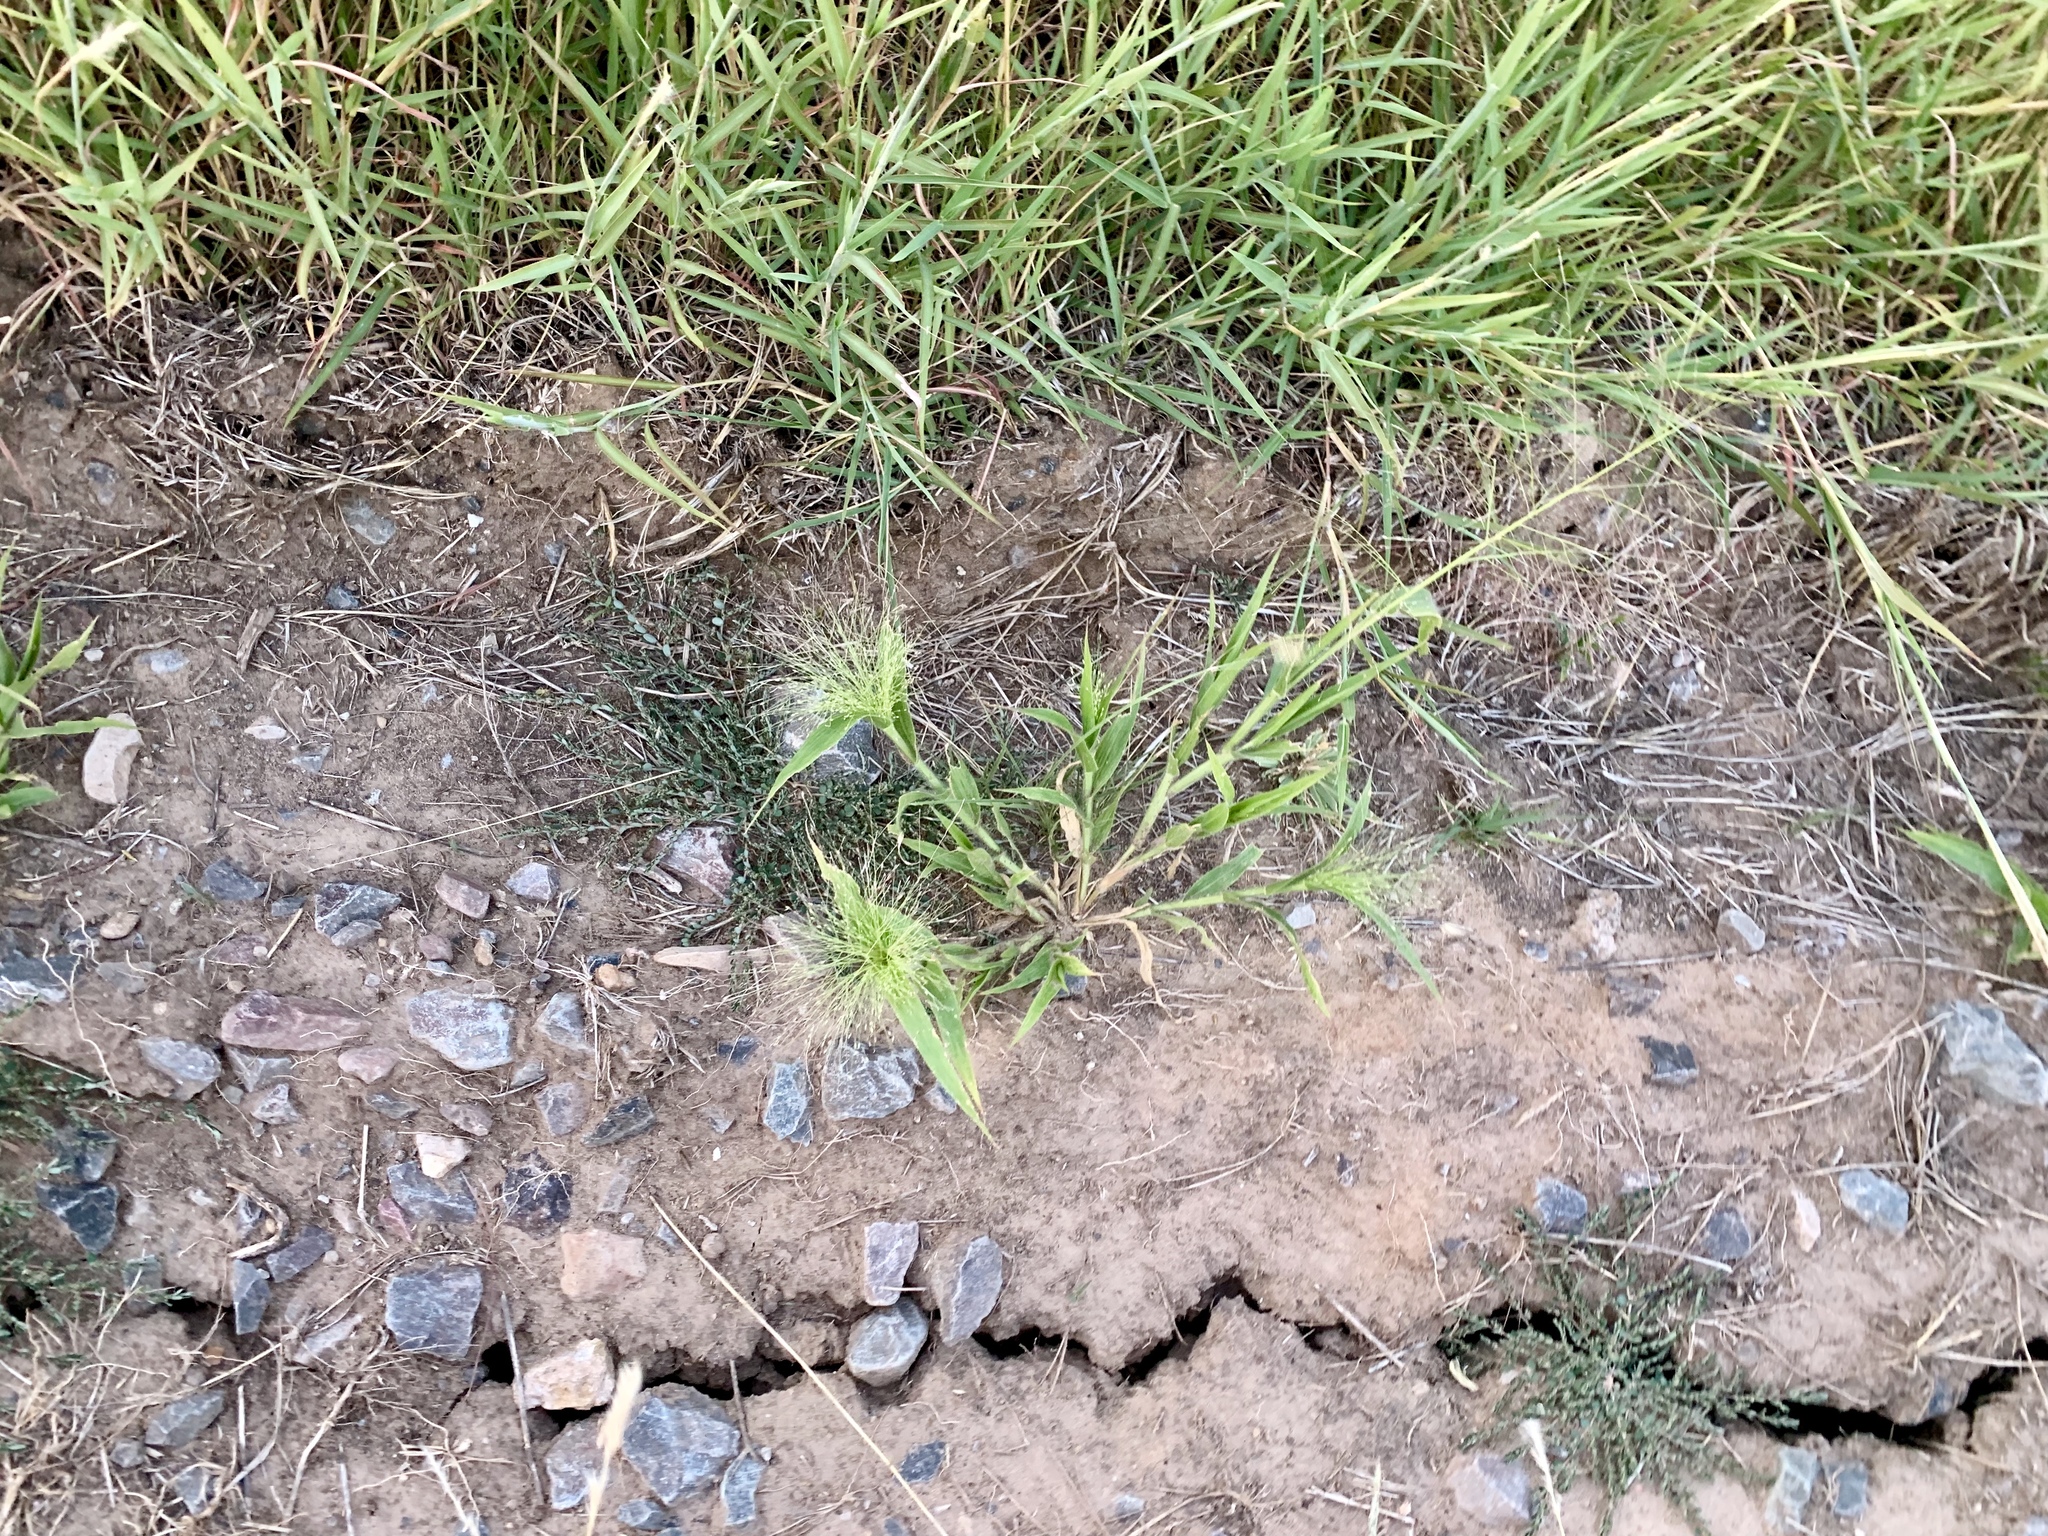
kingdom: Plantae
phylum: Tracheophyta
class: Liliopsida
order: Poales
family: Poaceae
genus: Panicum
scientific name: Panicum capillare
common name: Witch-grass
